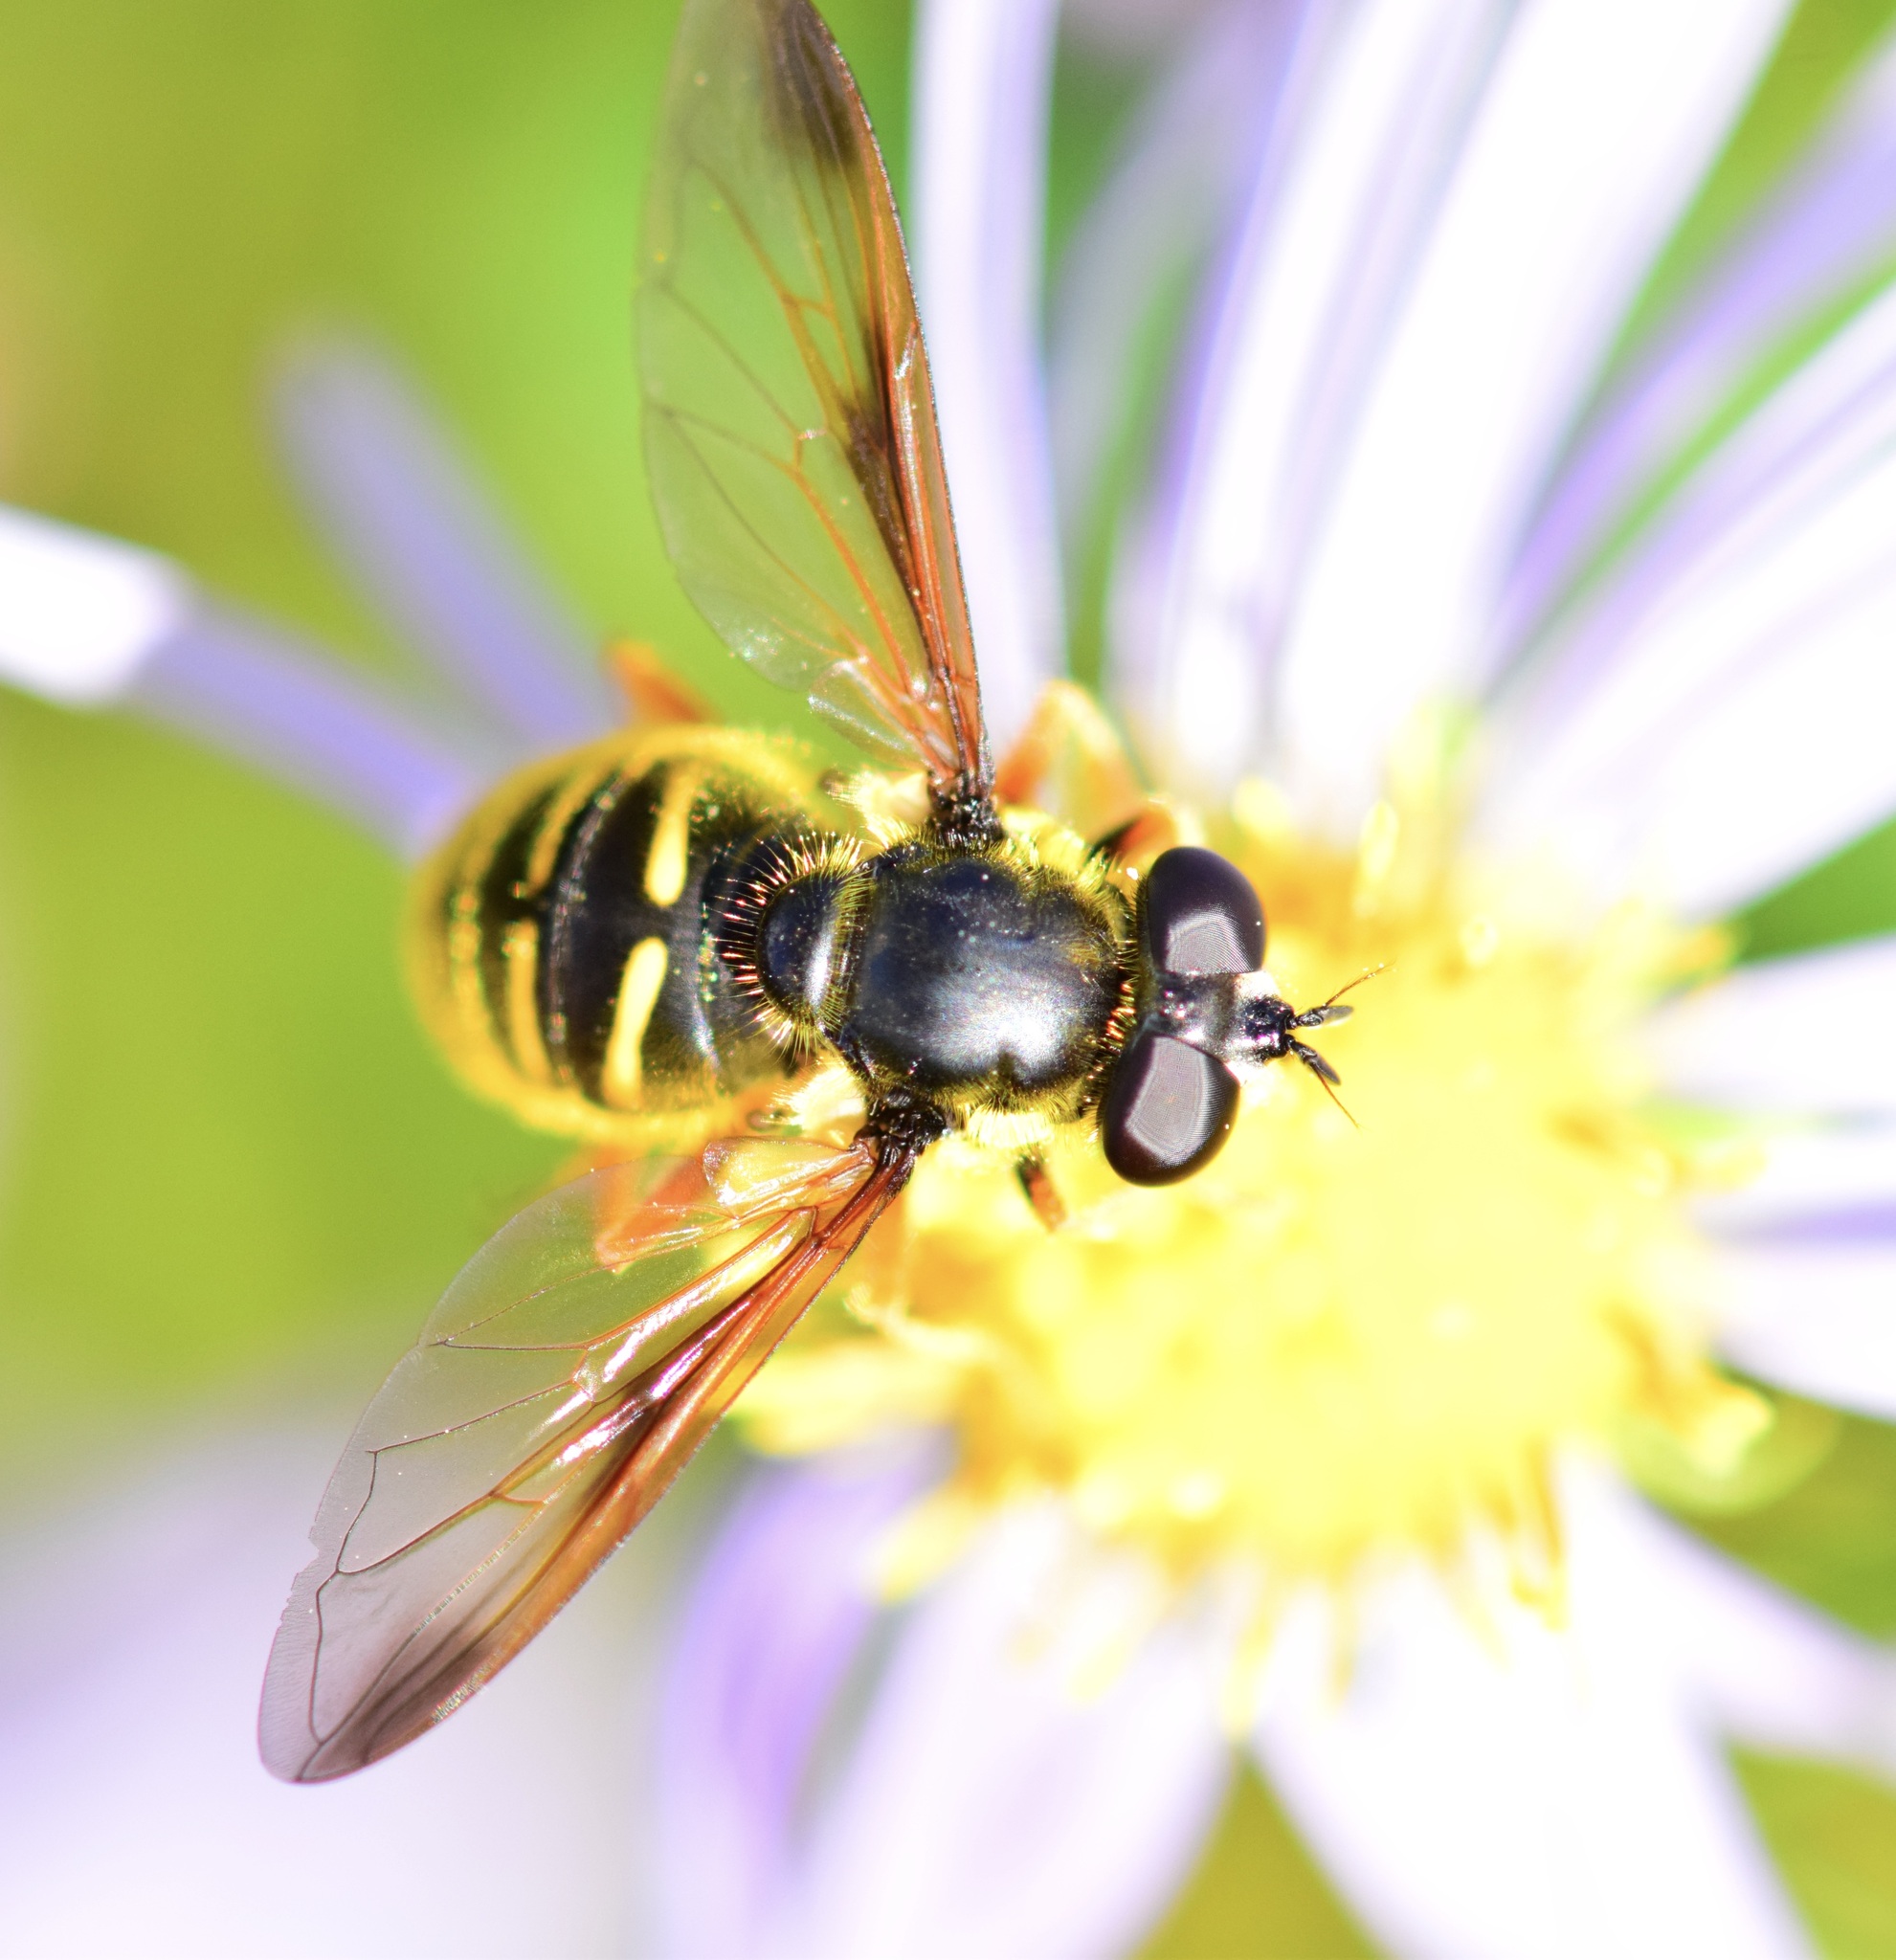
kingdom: Animalia
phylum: Arthropoda
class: Insecta
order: Diptera
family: Syrphidae
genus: Sericomyia
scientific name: Sericomyia chrysotoxoides
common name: Oblique-banded pond fly
